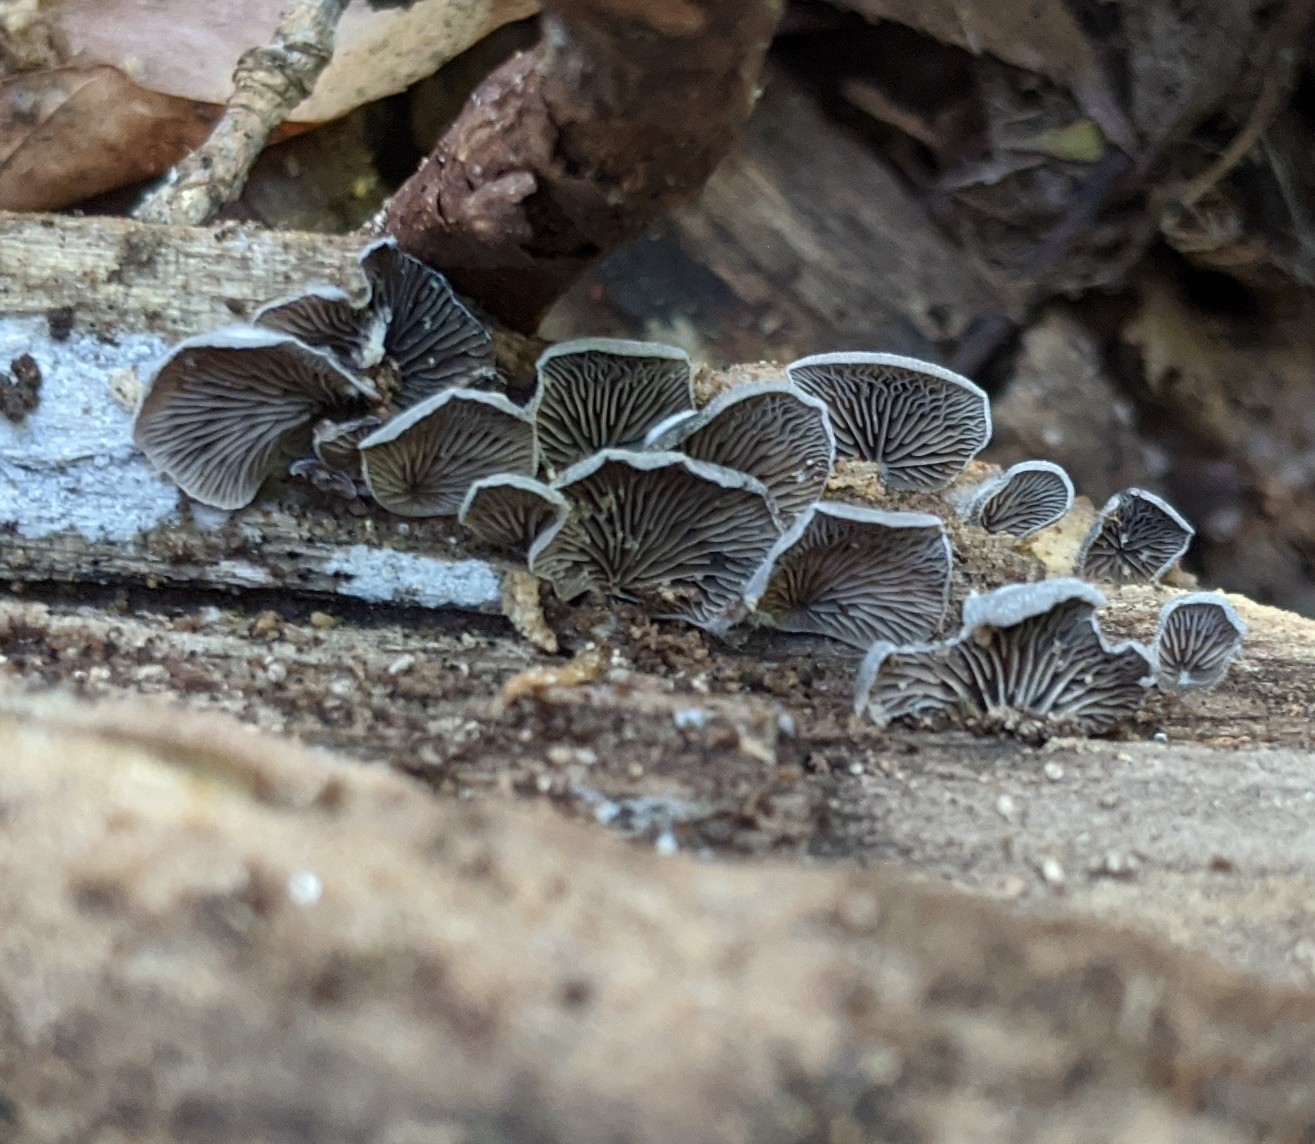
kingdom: Fungi
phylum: Basidiomycota
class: Agaricomycetes
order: Agaricales
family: Pleurotaceae
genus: Resupinatus
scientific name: Resupinatus applicatus
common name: Smoked oysterling
